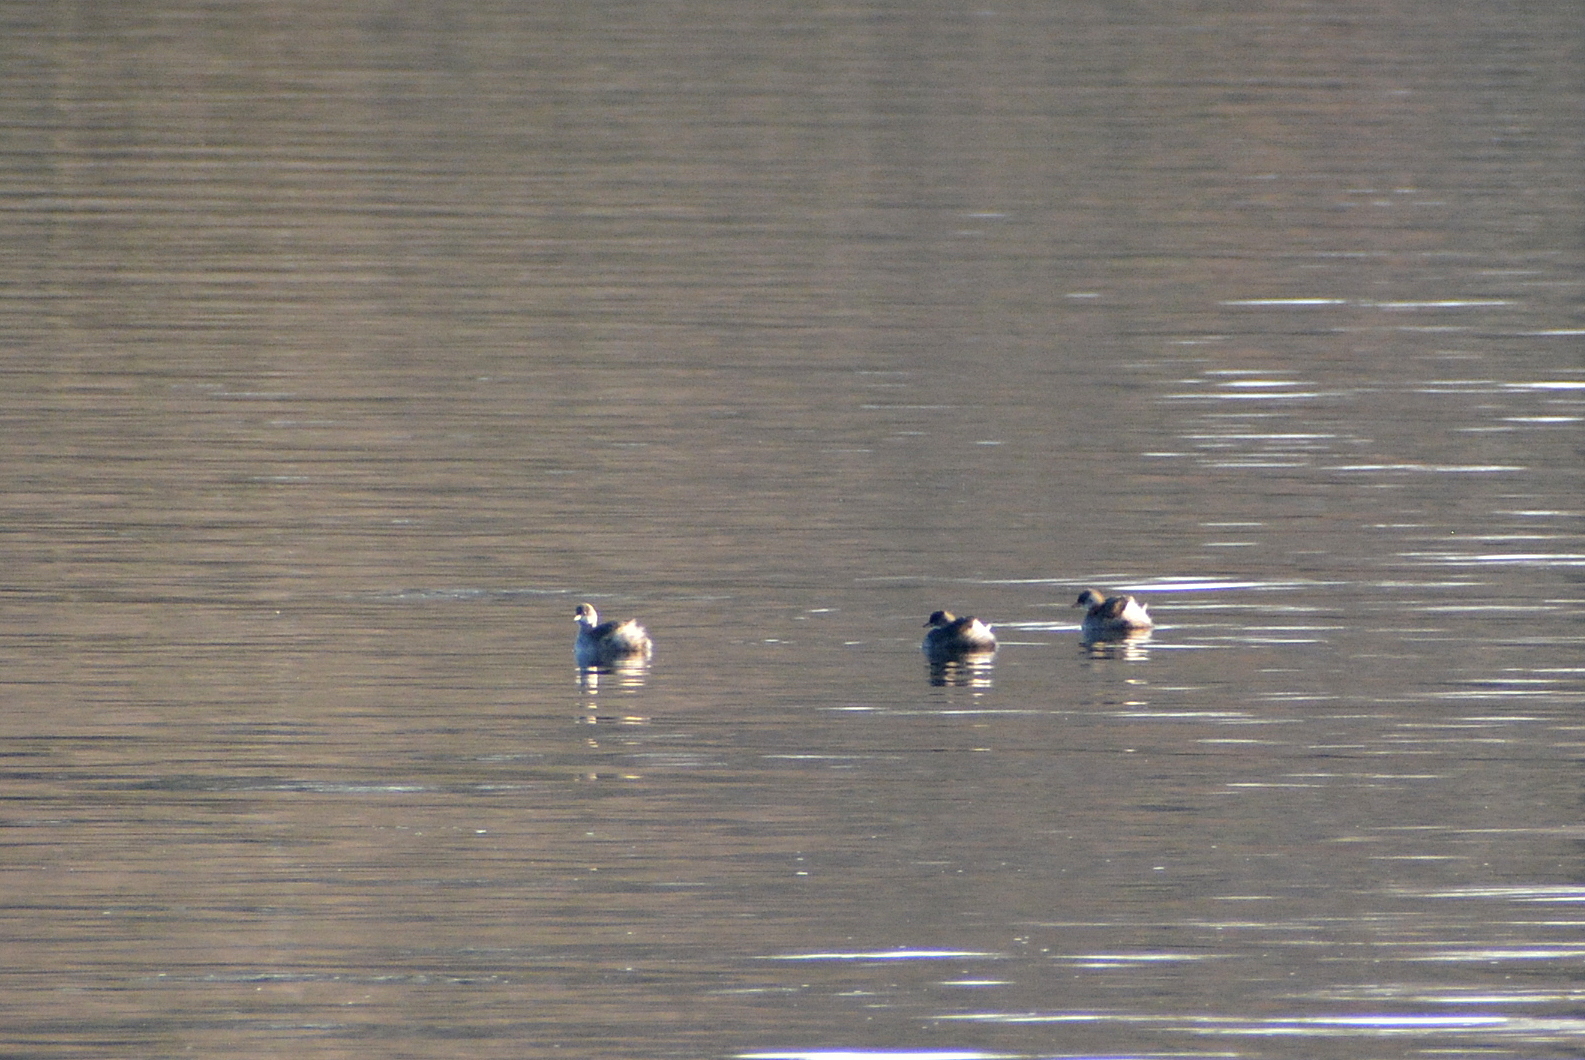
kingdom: Animalia
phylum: Chordata
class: Aves
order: Podicipediformes
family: Podicipedidae
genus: Tachybaptus
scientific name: Tachybaptus ruficollis
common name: Little grebe
